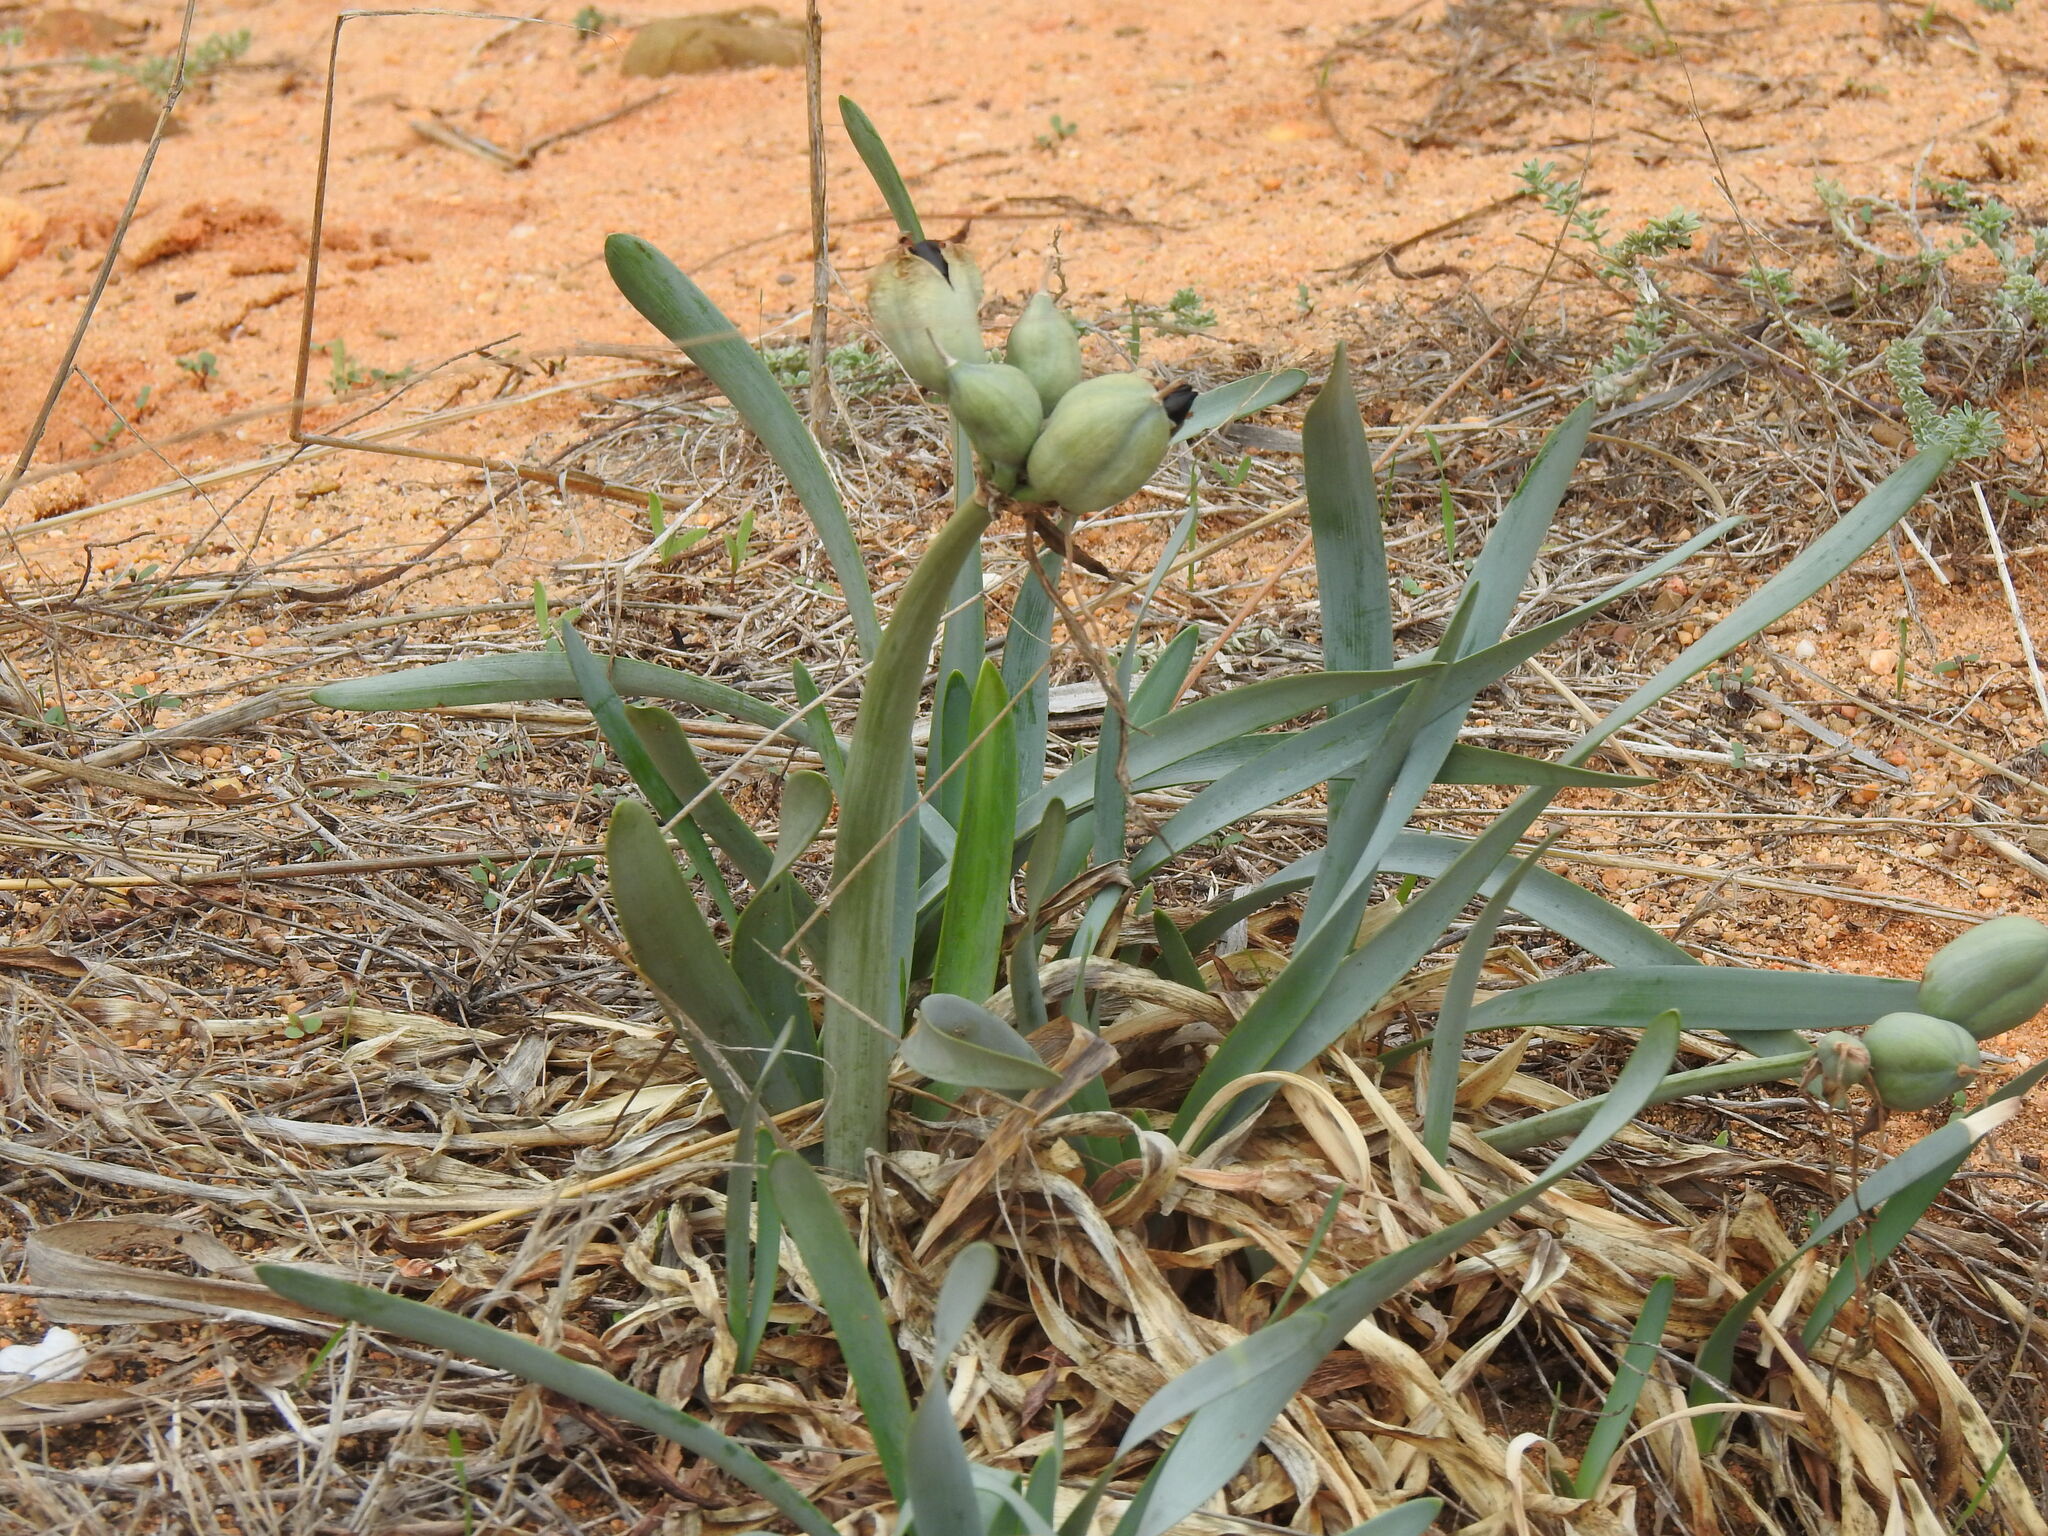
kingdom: Plantae
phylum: Tracheophyta
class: Liliopsida
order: Asparagales
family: Amaryllidaceae
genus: Pancratium
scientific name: Pancratium maritimum
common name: Sea-daffodil
